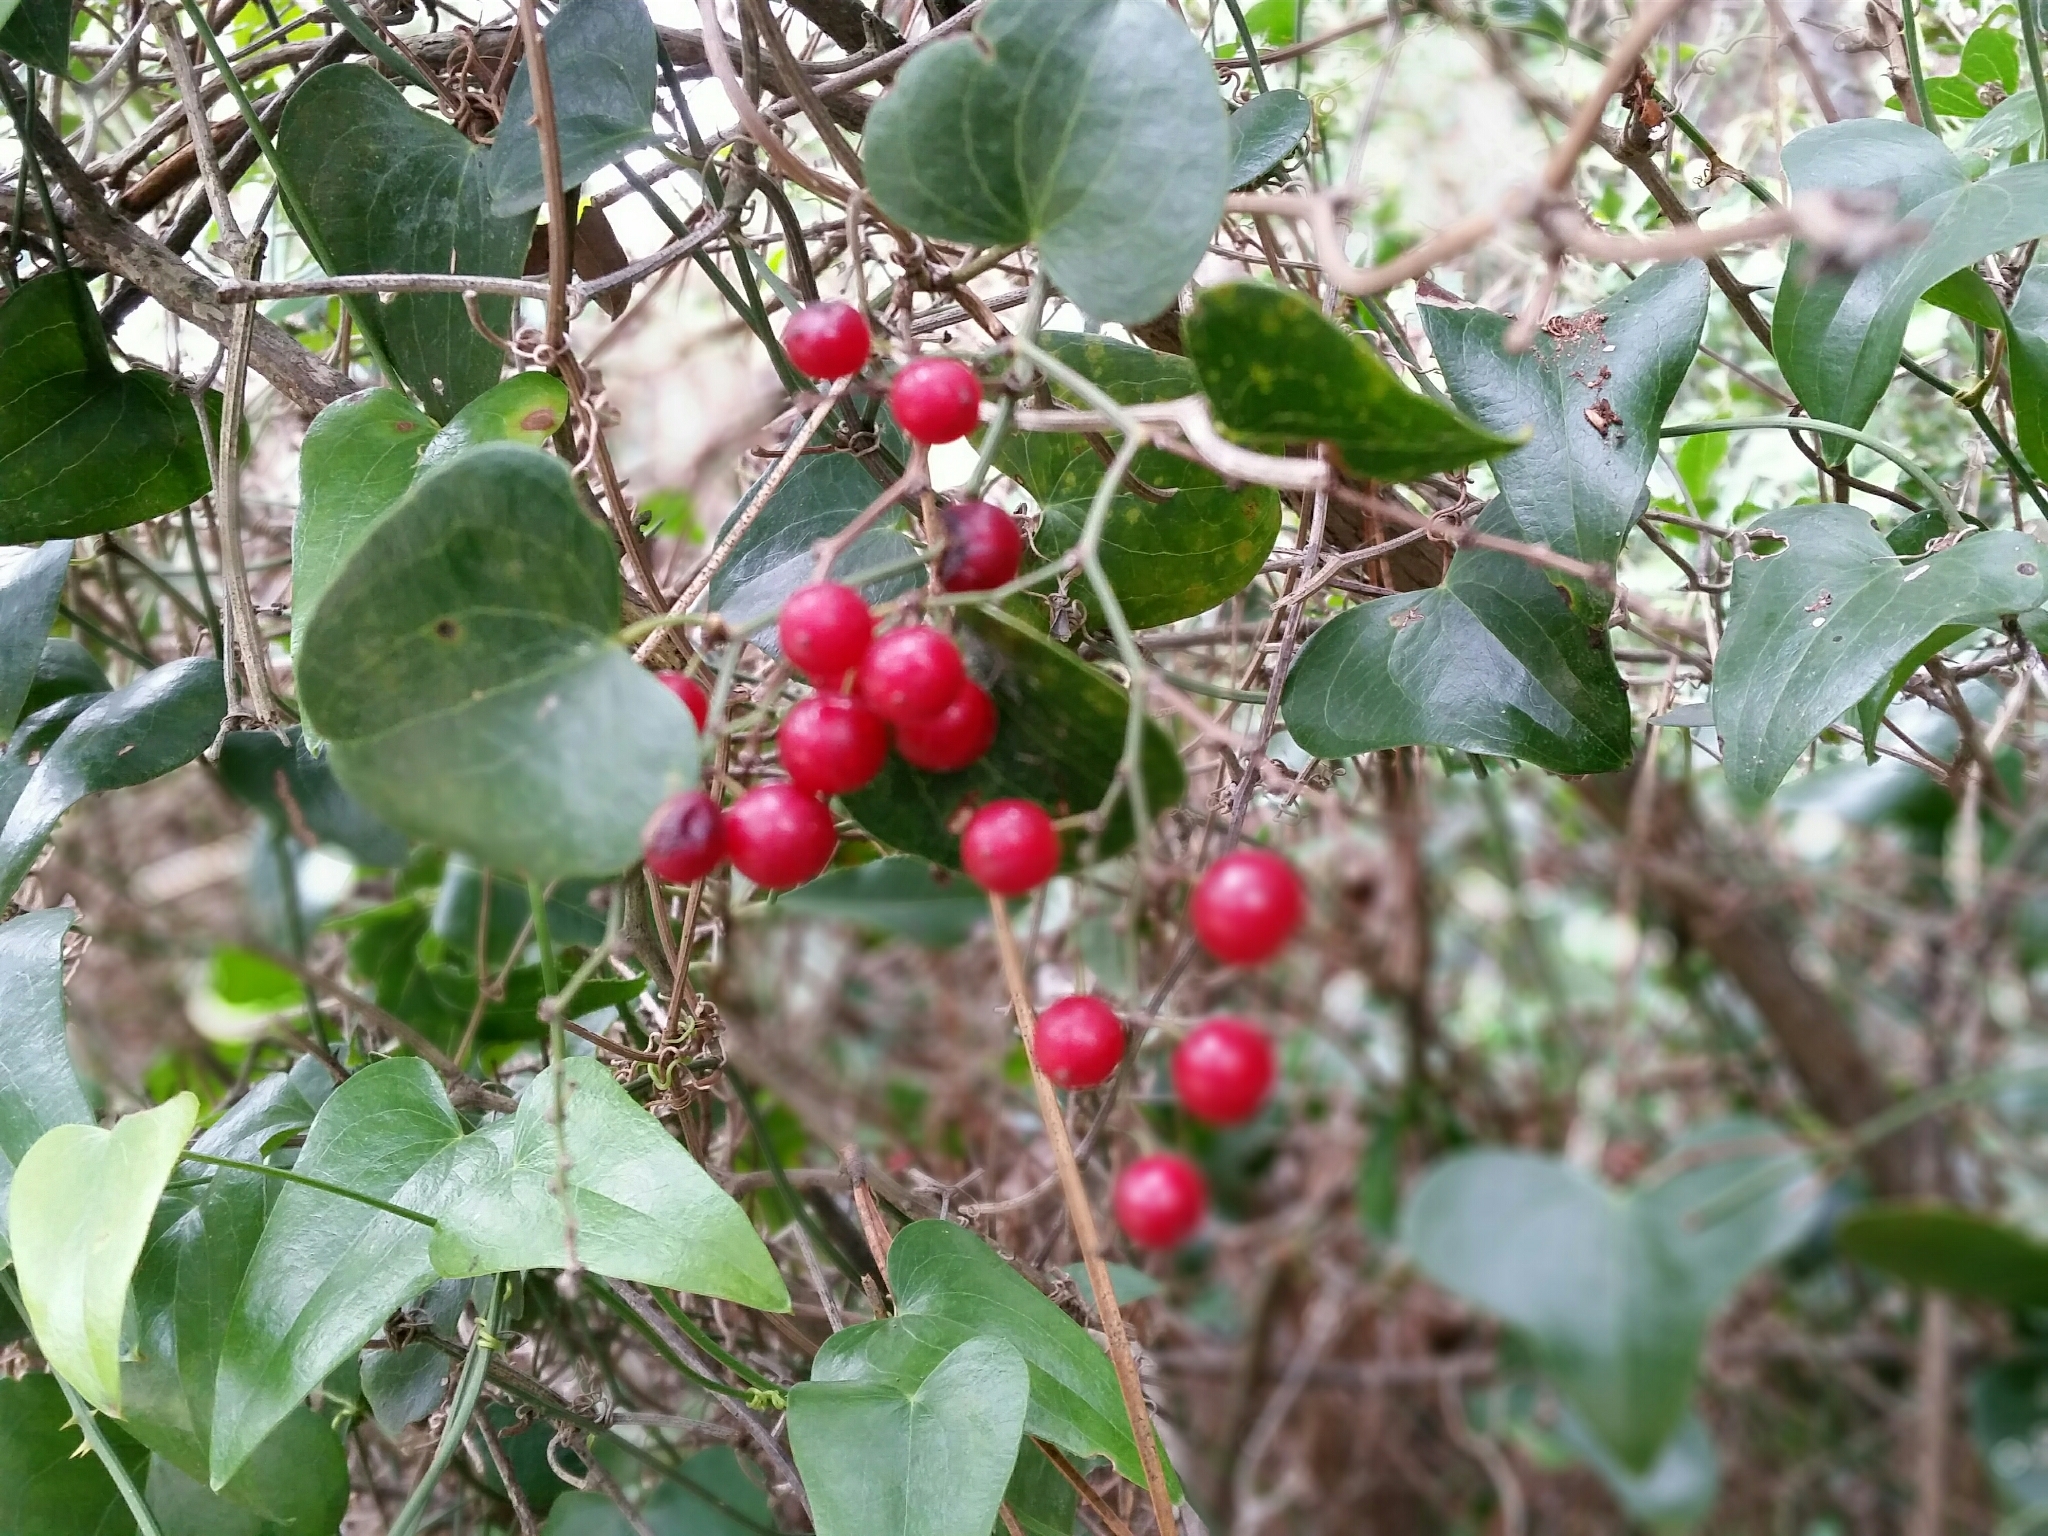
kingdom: Plantae
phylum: Tracheophyta
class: Liliopsida
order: Liliales
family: Smilacaceae
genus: Smilax
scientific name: Smilax aspera
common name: Common smilax
